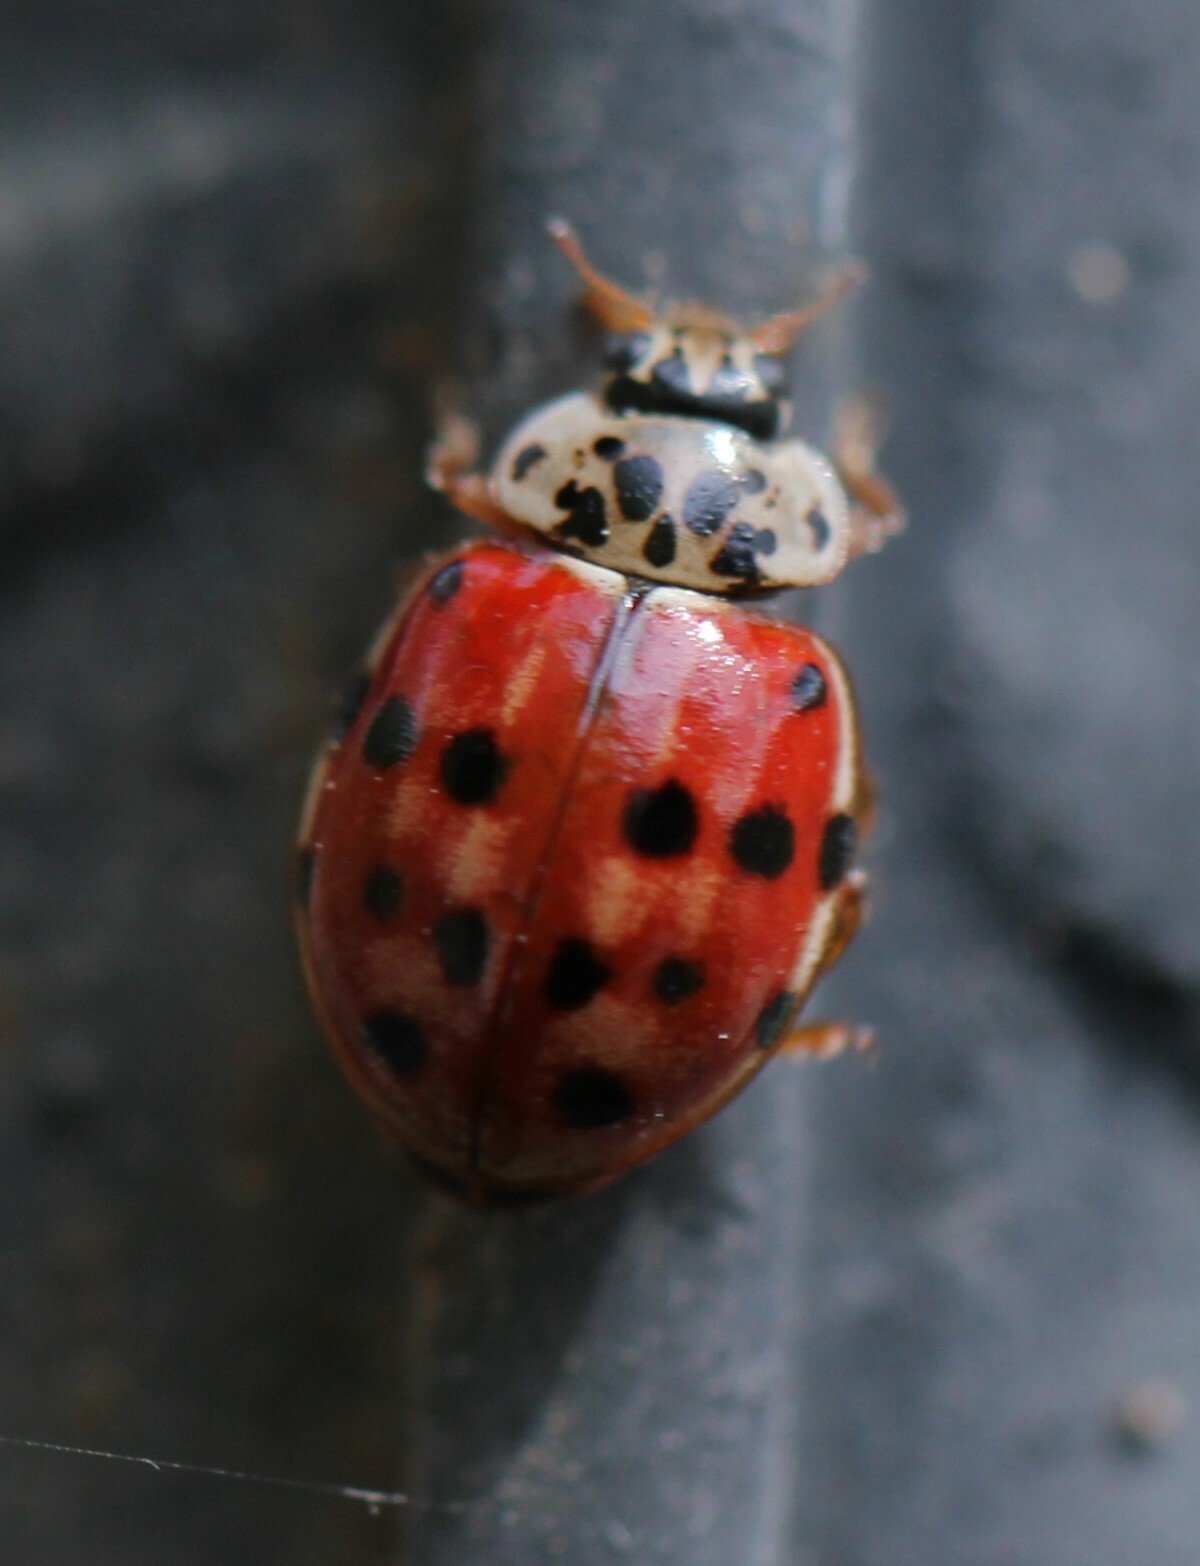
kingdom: Animalia
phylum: Arthropoda
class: Insecta
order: Coleoptera
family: Coccinellidae
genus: Harmonia
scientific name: Harmonia quadripunctata
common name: Cream-streaked ladybird
